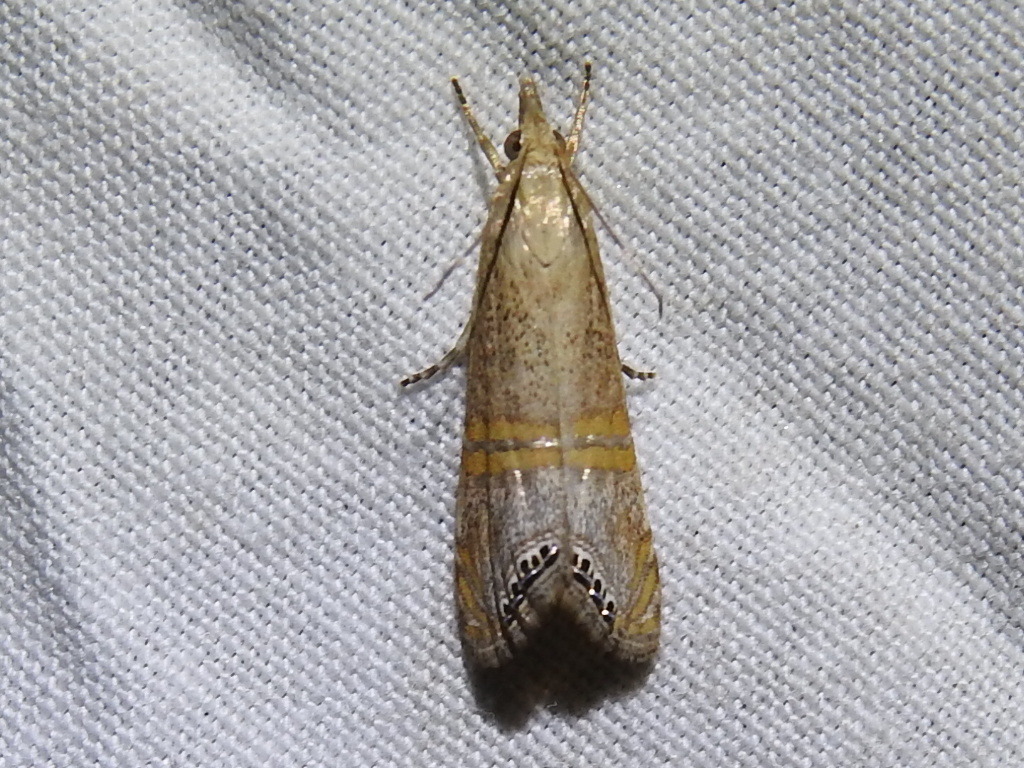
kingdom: Animalia
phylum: Arthropoda
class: Insecta
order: Lepidoptera
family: Crambidae
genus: Euchromius
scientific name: Euchromius ocellea
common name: Necklace veneer moth
